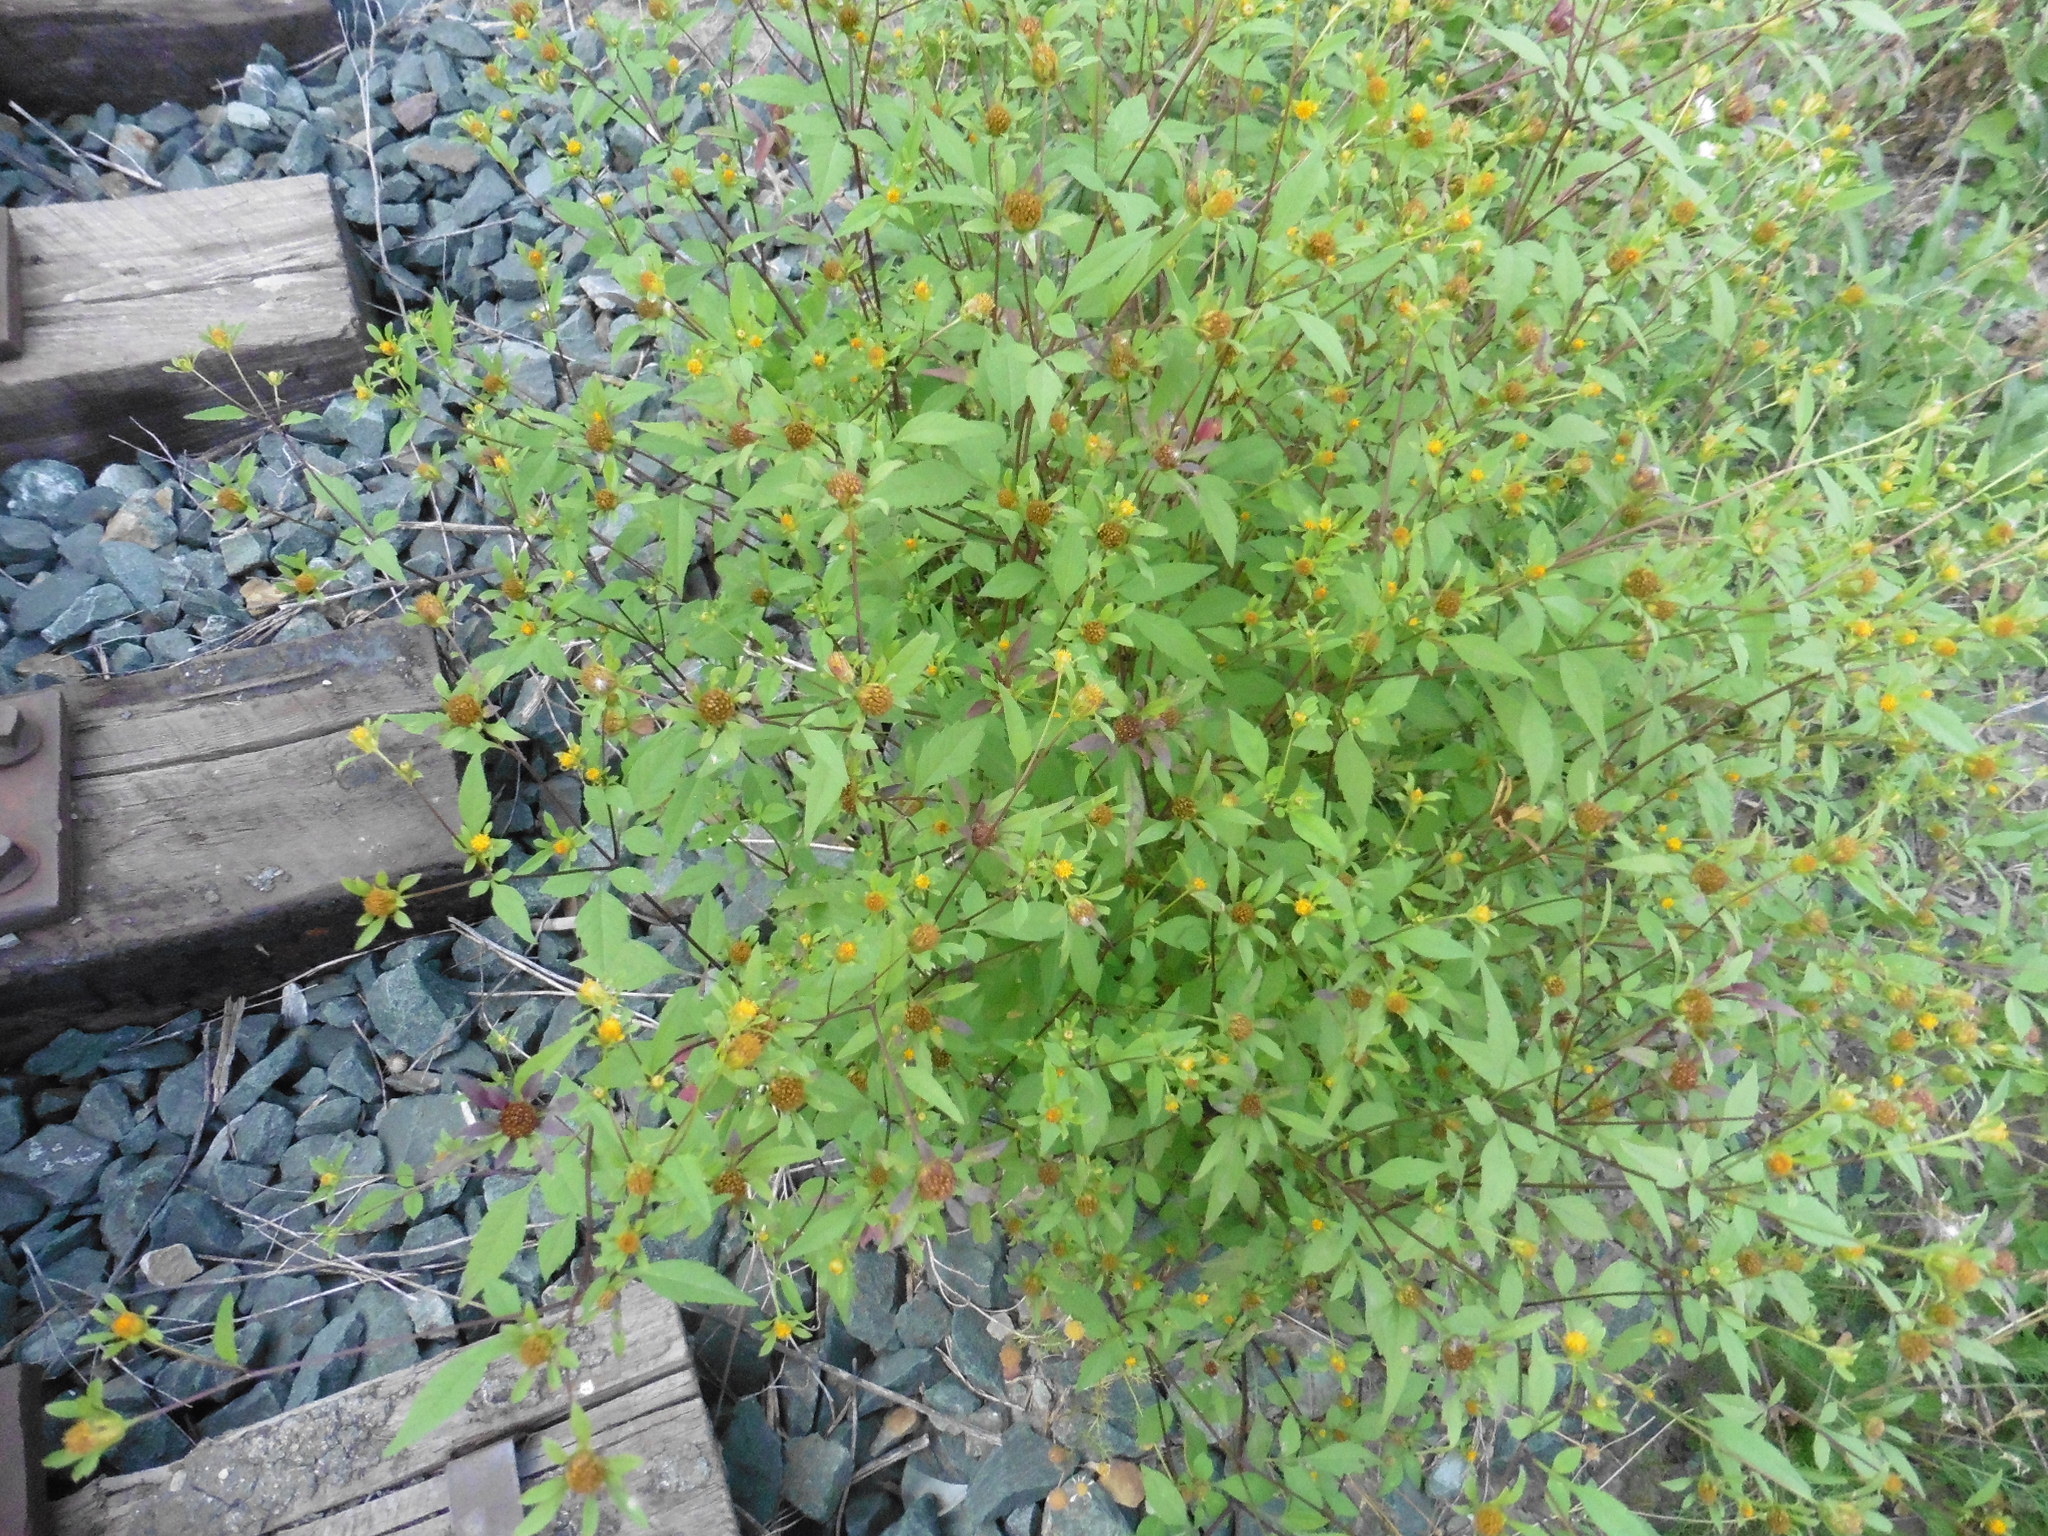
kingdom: Plantae
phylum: Tracheophyta
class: Magnoliopsida
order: Asterales
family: Asteraceae
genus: Bidens
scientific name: Bidens frondosa
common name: Beggarticks
